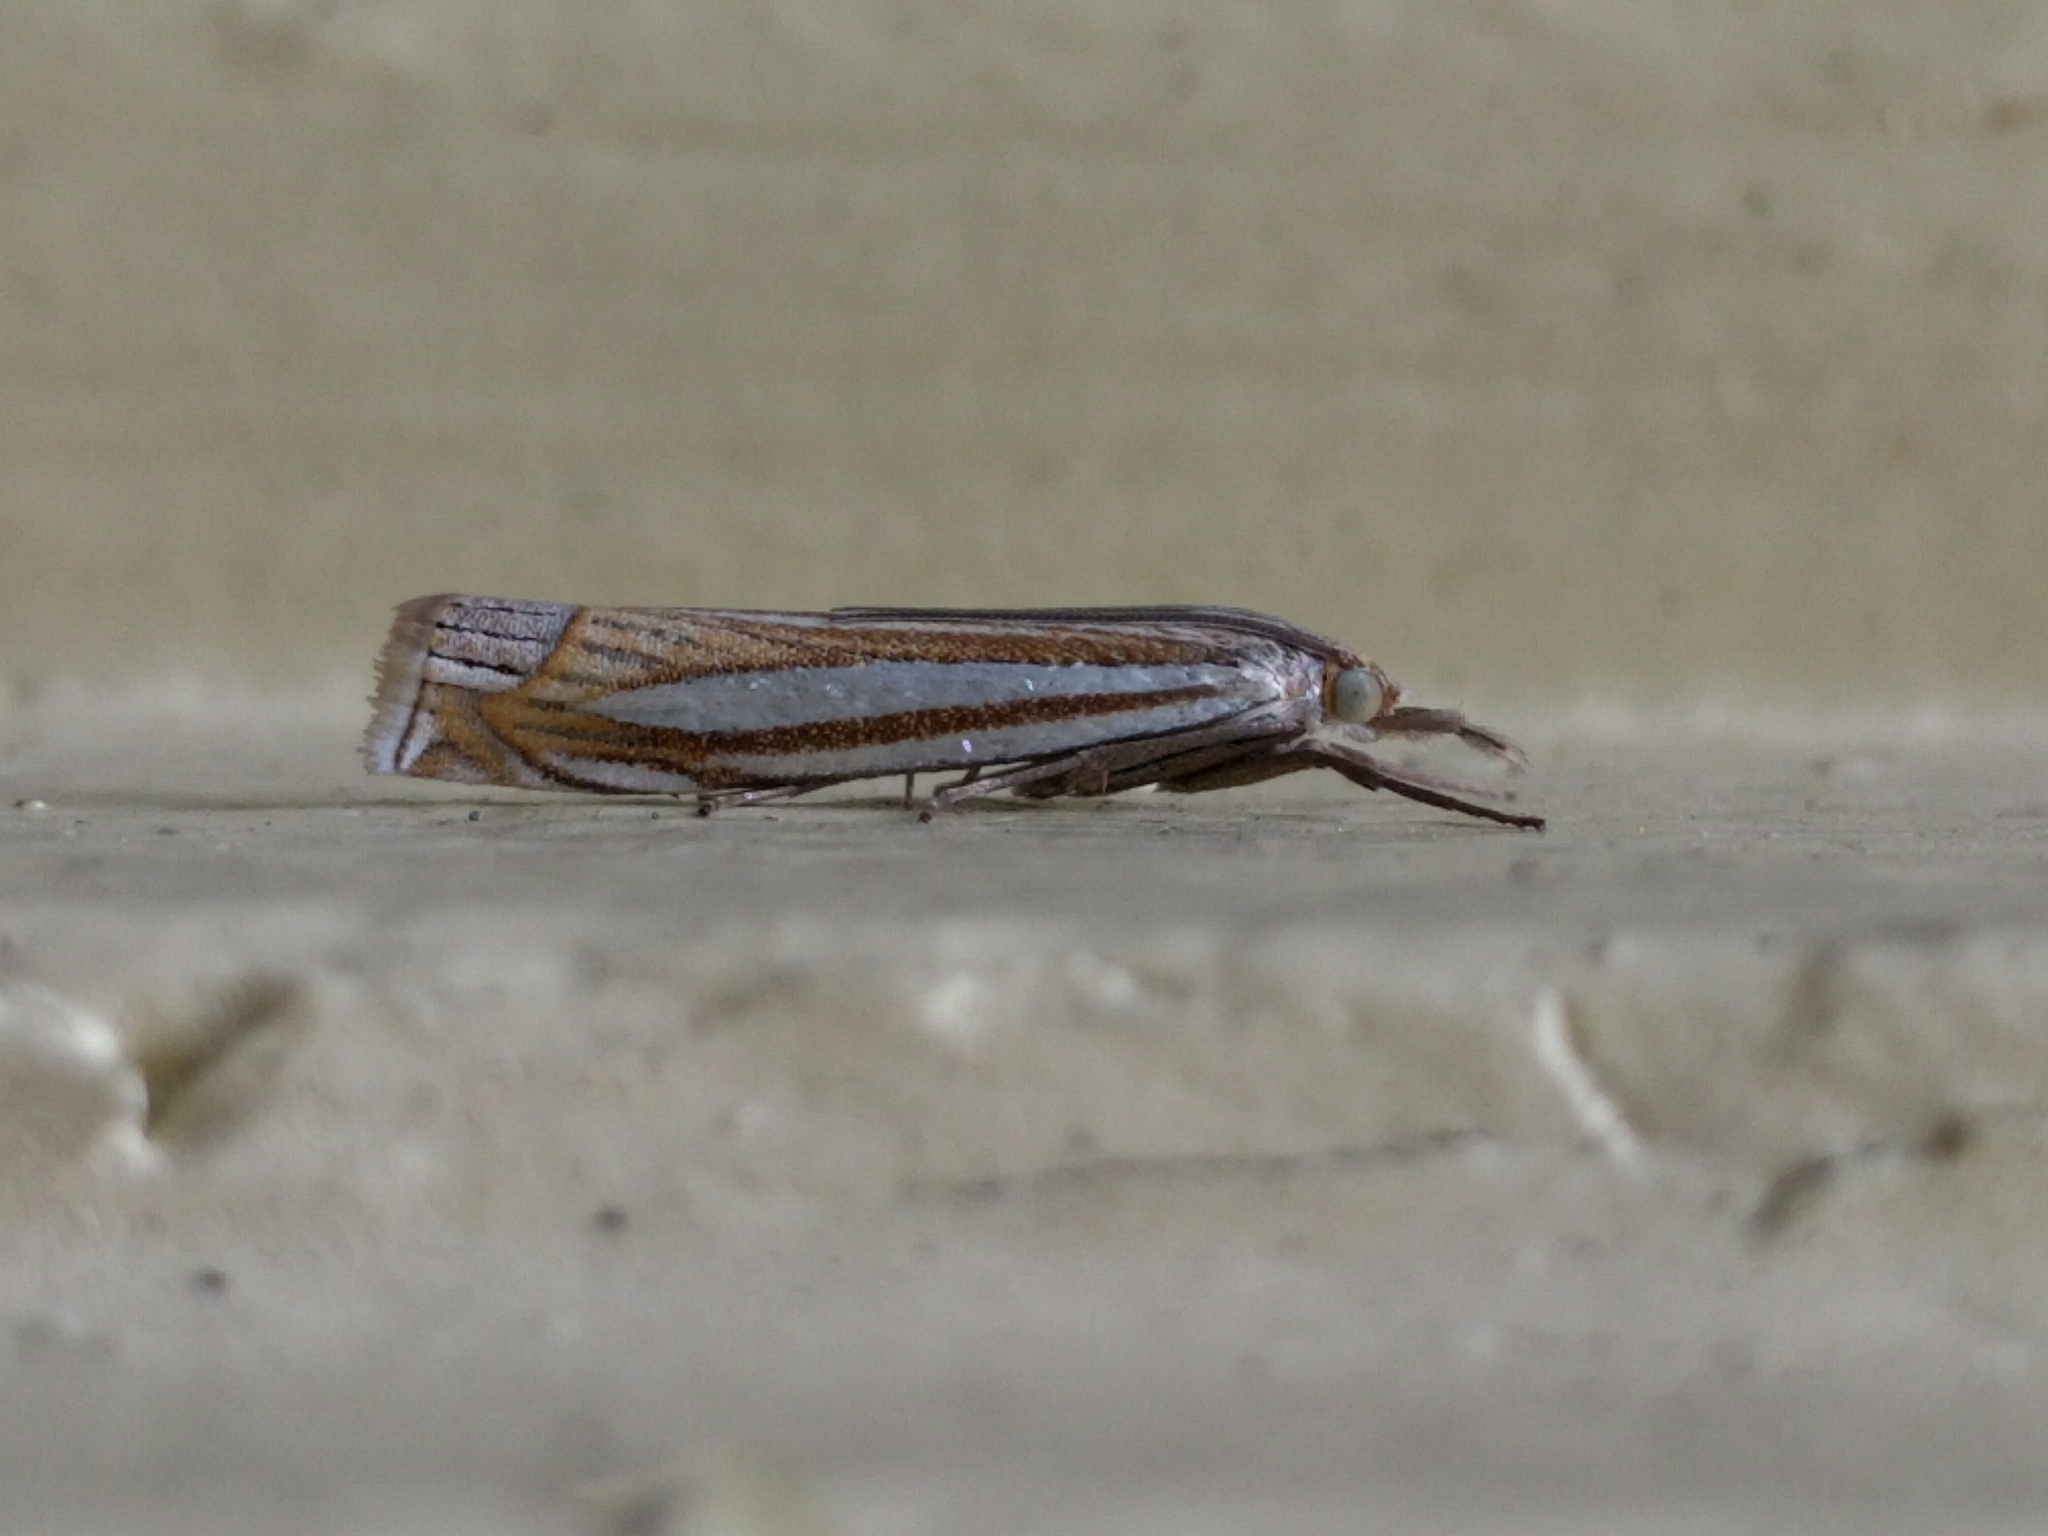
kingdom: Animalia
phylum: Arthropoda
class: Insecta
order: Lepidoptera
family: Crambidae
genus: Crambus
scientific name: Crambus laqueatellus
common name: Eastern grass-veneer
